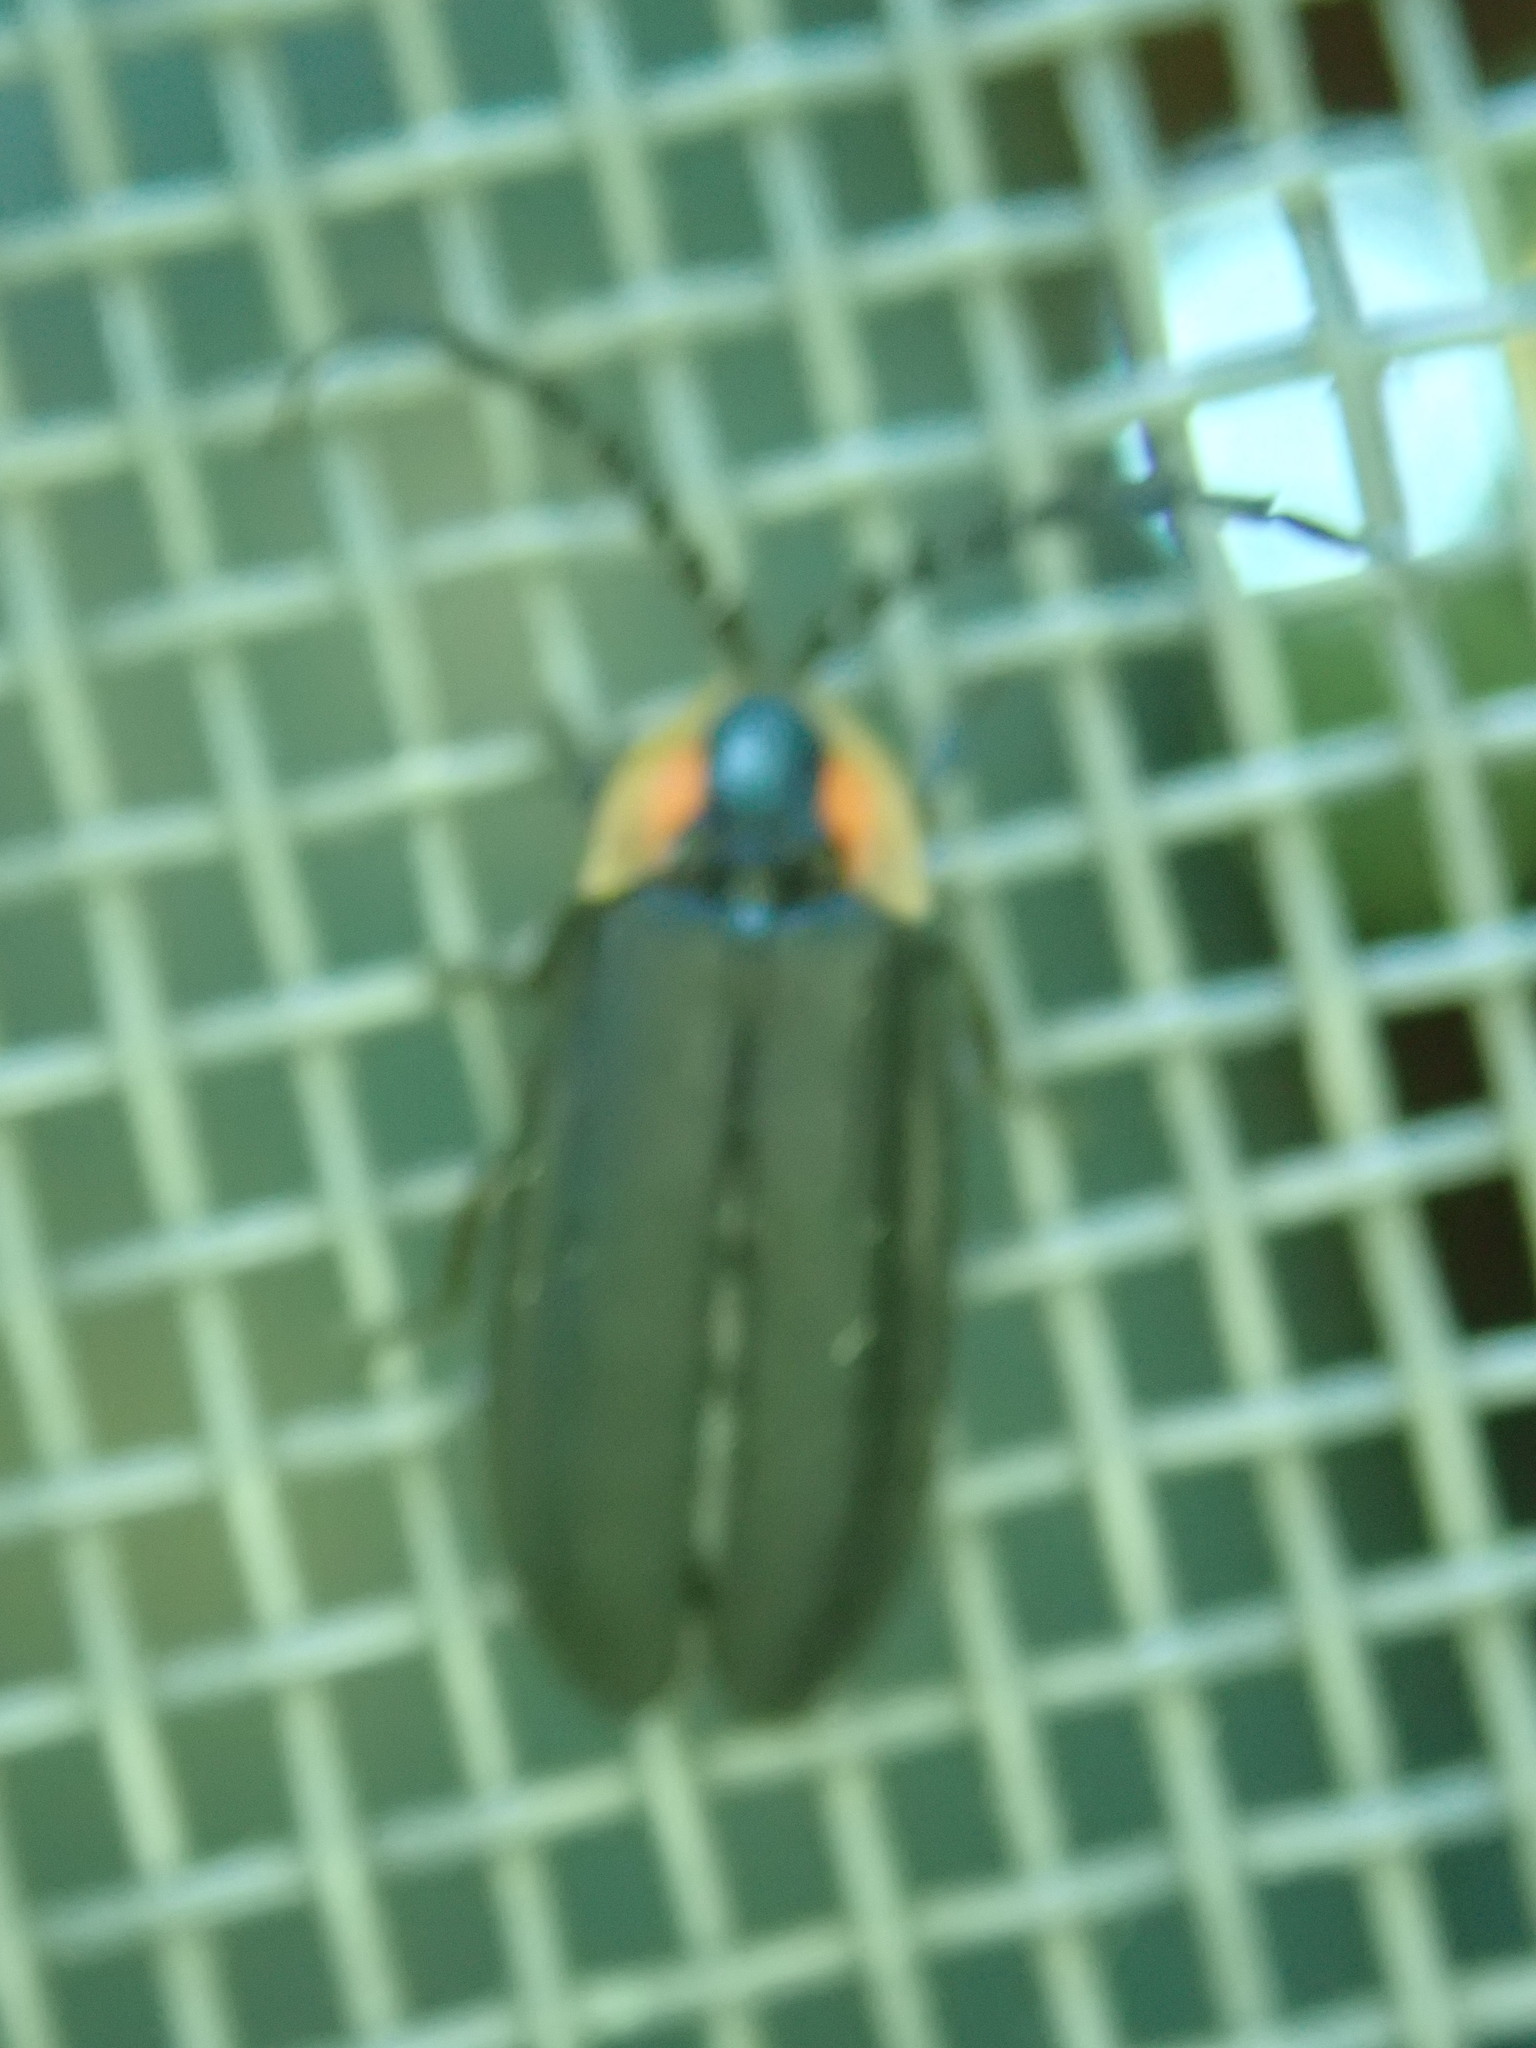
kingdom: Animalia
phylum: Arthropoda
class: Insecta
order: Coleoptera
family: Lampyridae
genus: Lucidota
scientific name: Lucidota atra
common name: Black firefly
